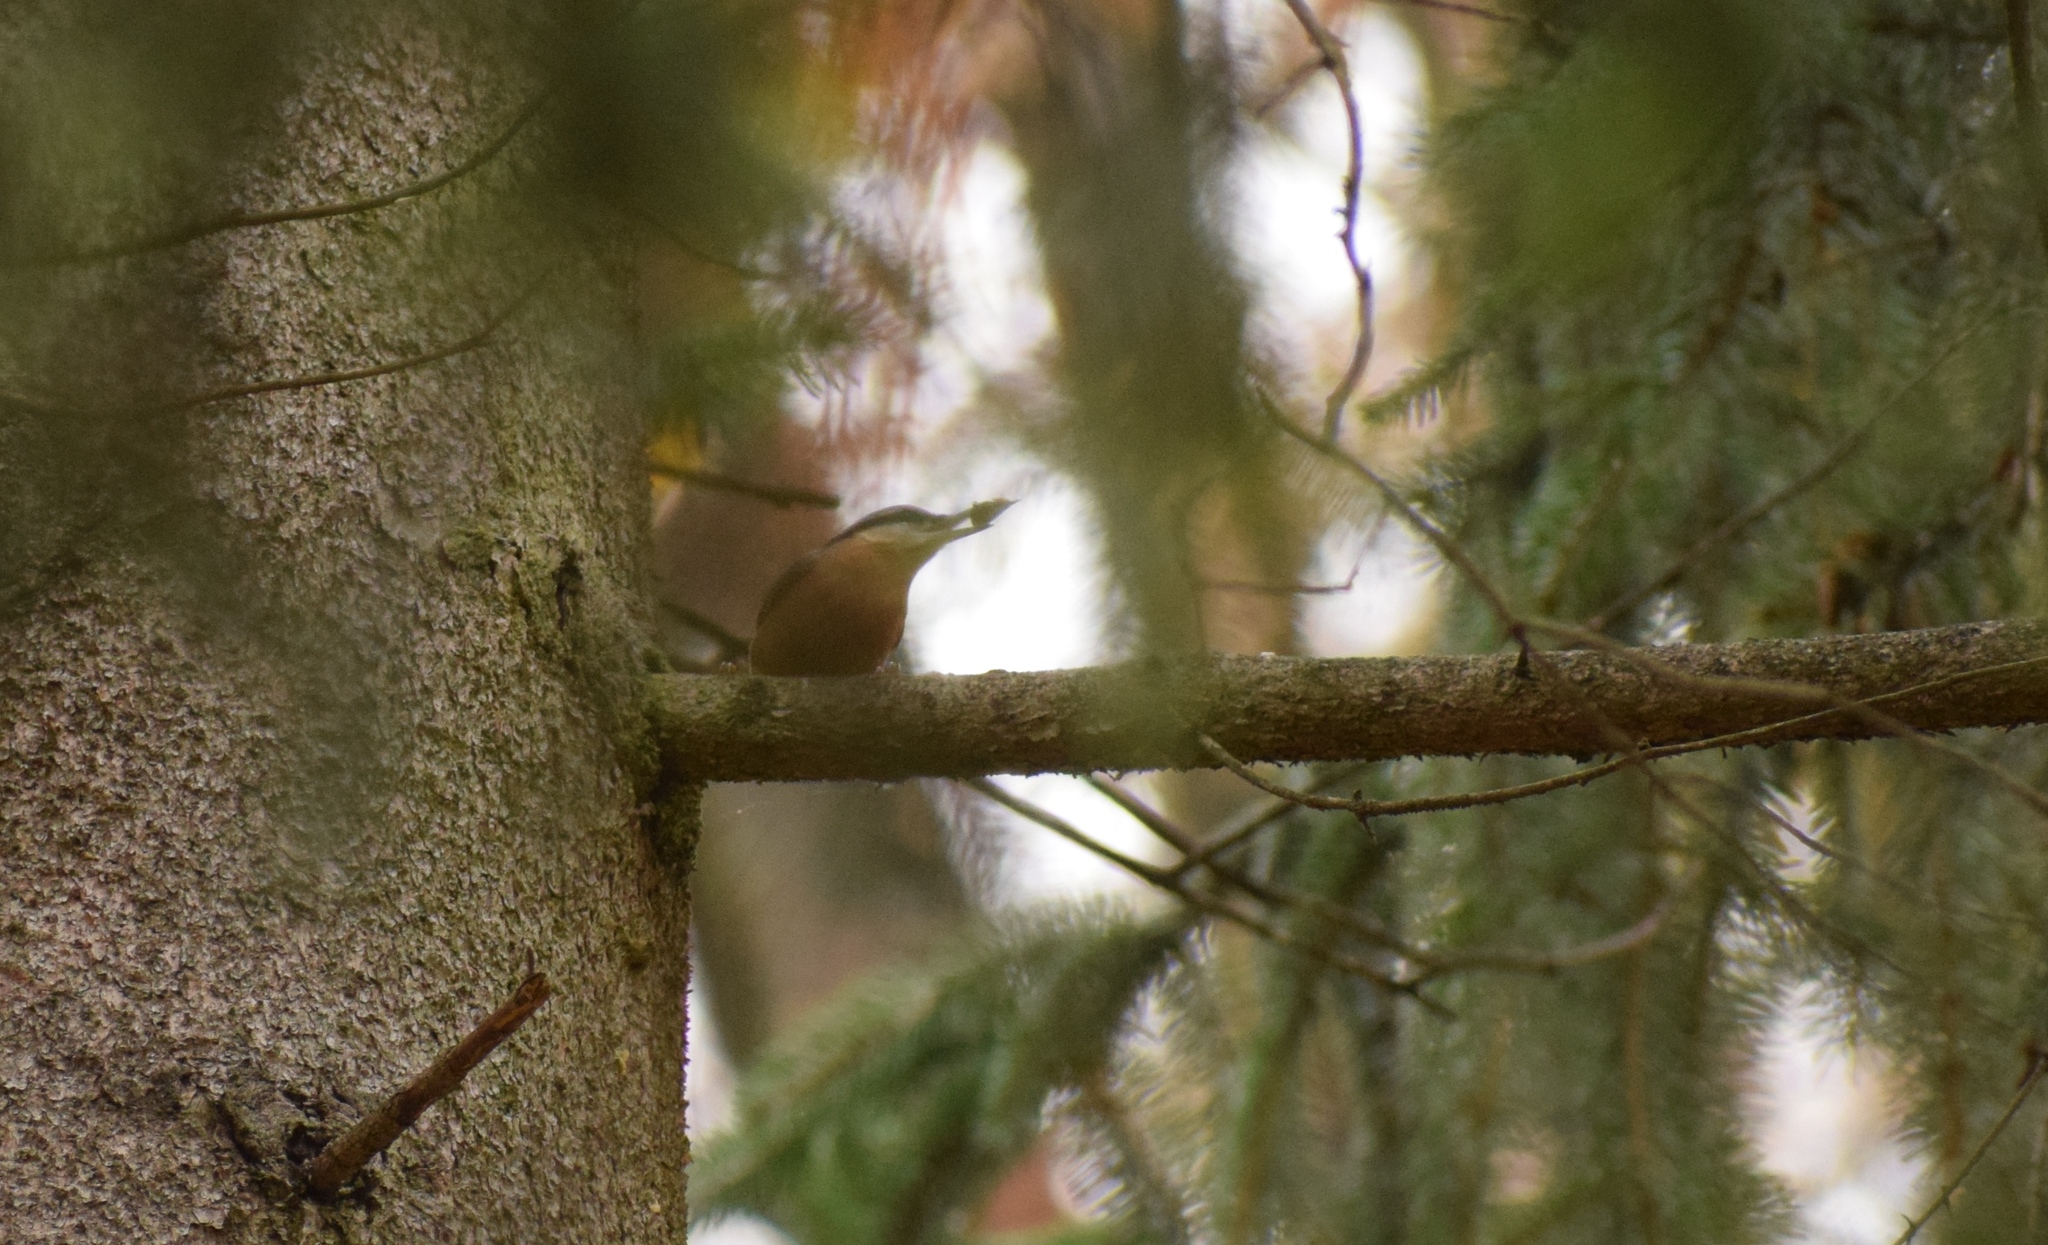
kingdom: Animalia
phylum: Chordata
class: Aves
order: Passeriformes
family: Sittidae
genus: Sitta
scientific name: Sitta europaea
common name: Eurasian nuthatch
